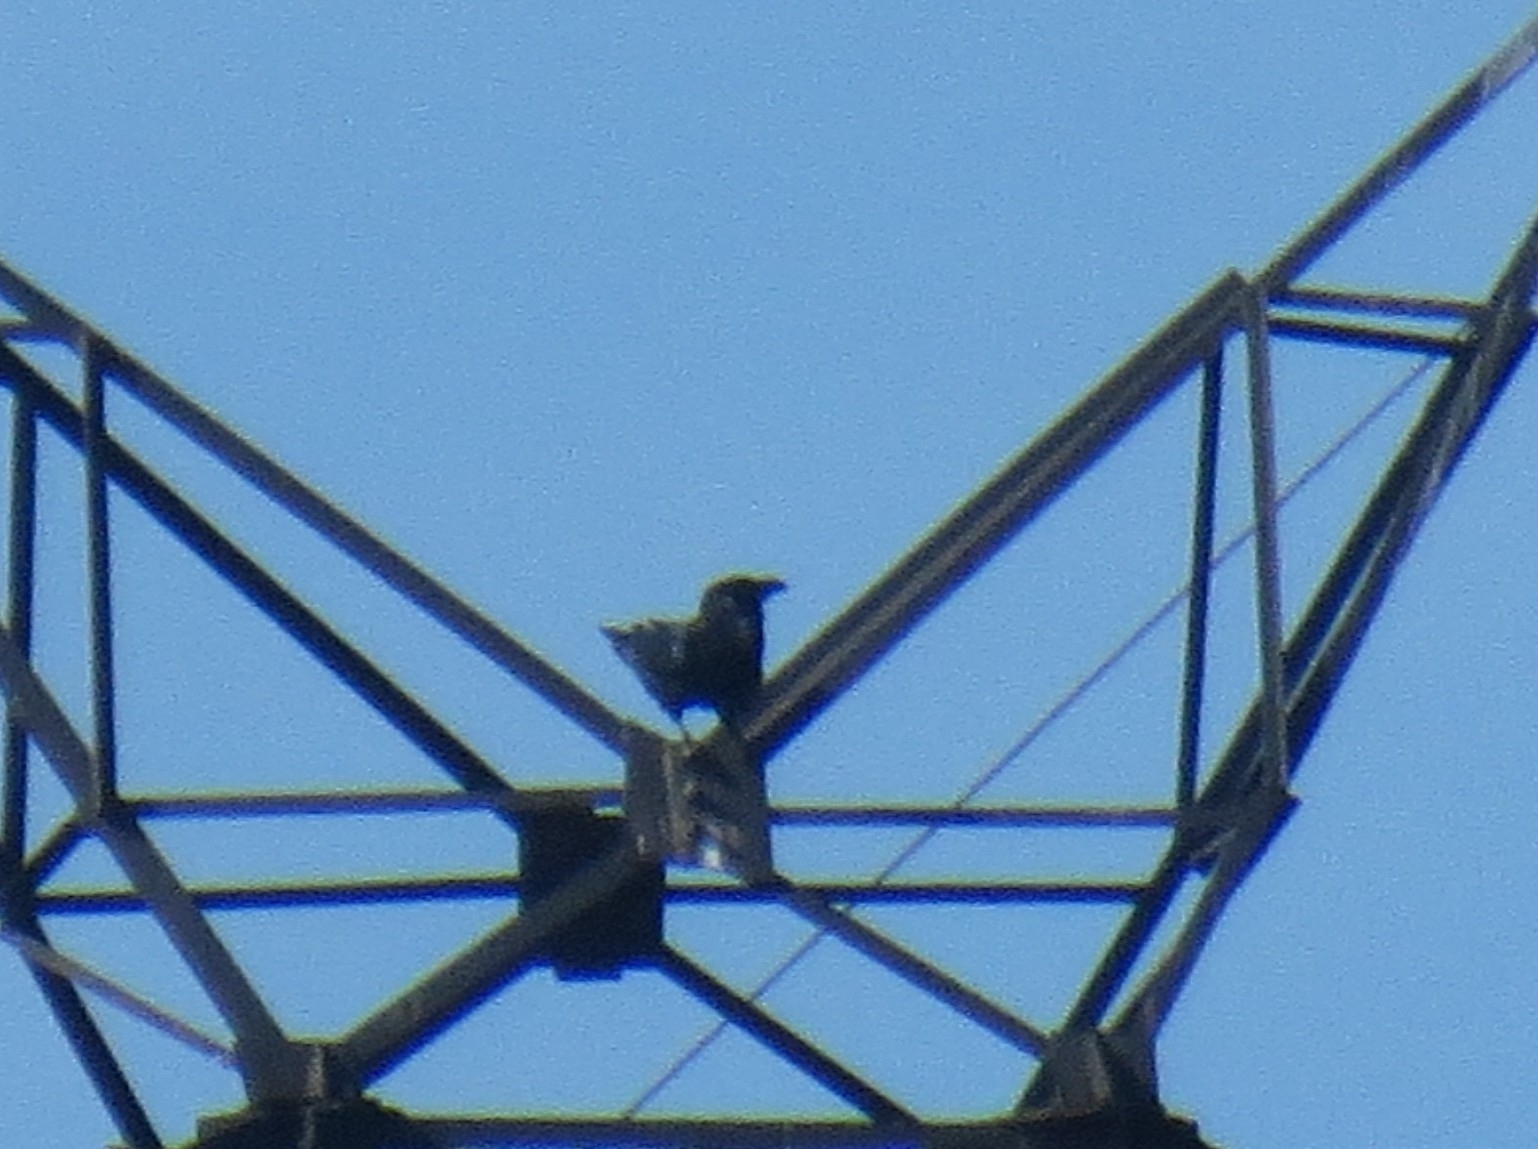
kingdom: Animalia
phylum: Chordata
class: Aves
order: Passeriformes
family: Corvidae
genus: Corvus
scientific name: Corvus corax
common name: Common raven
